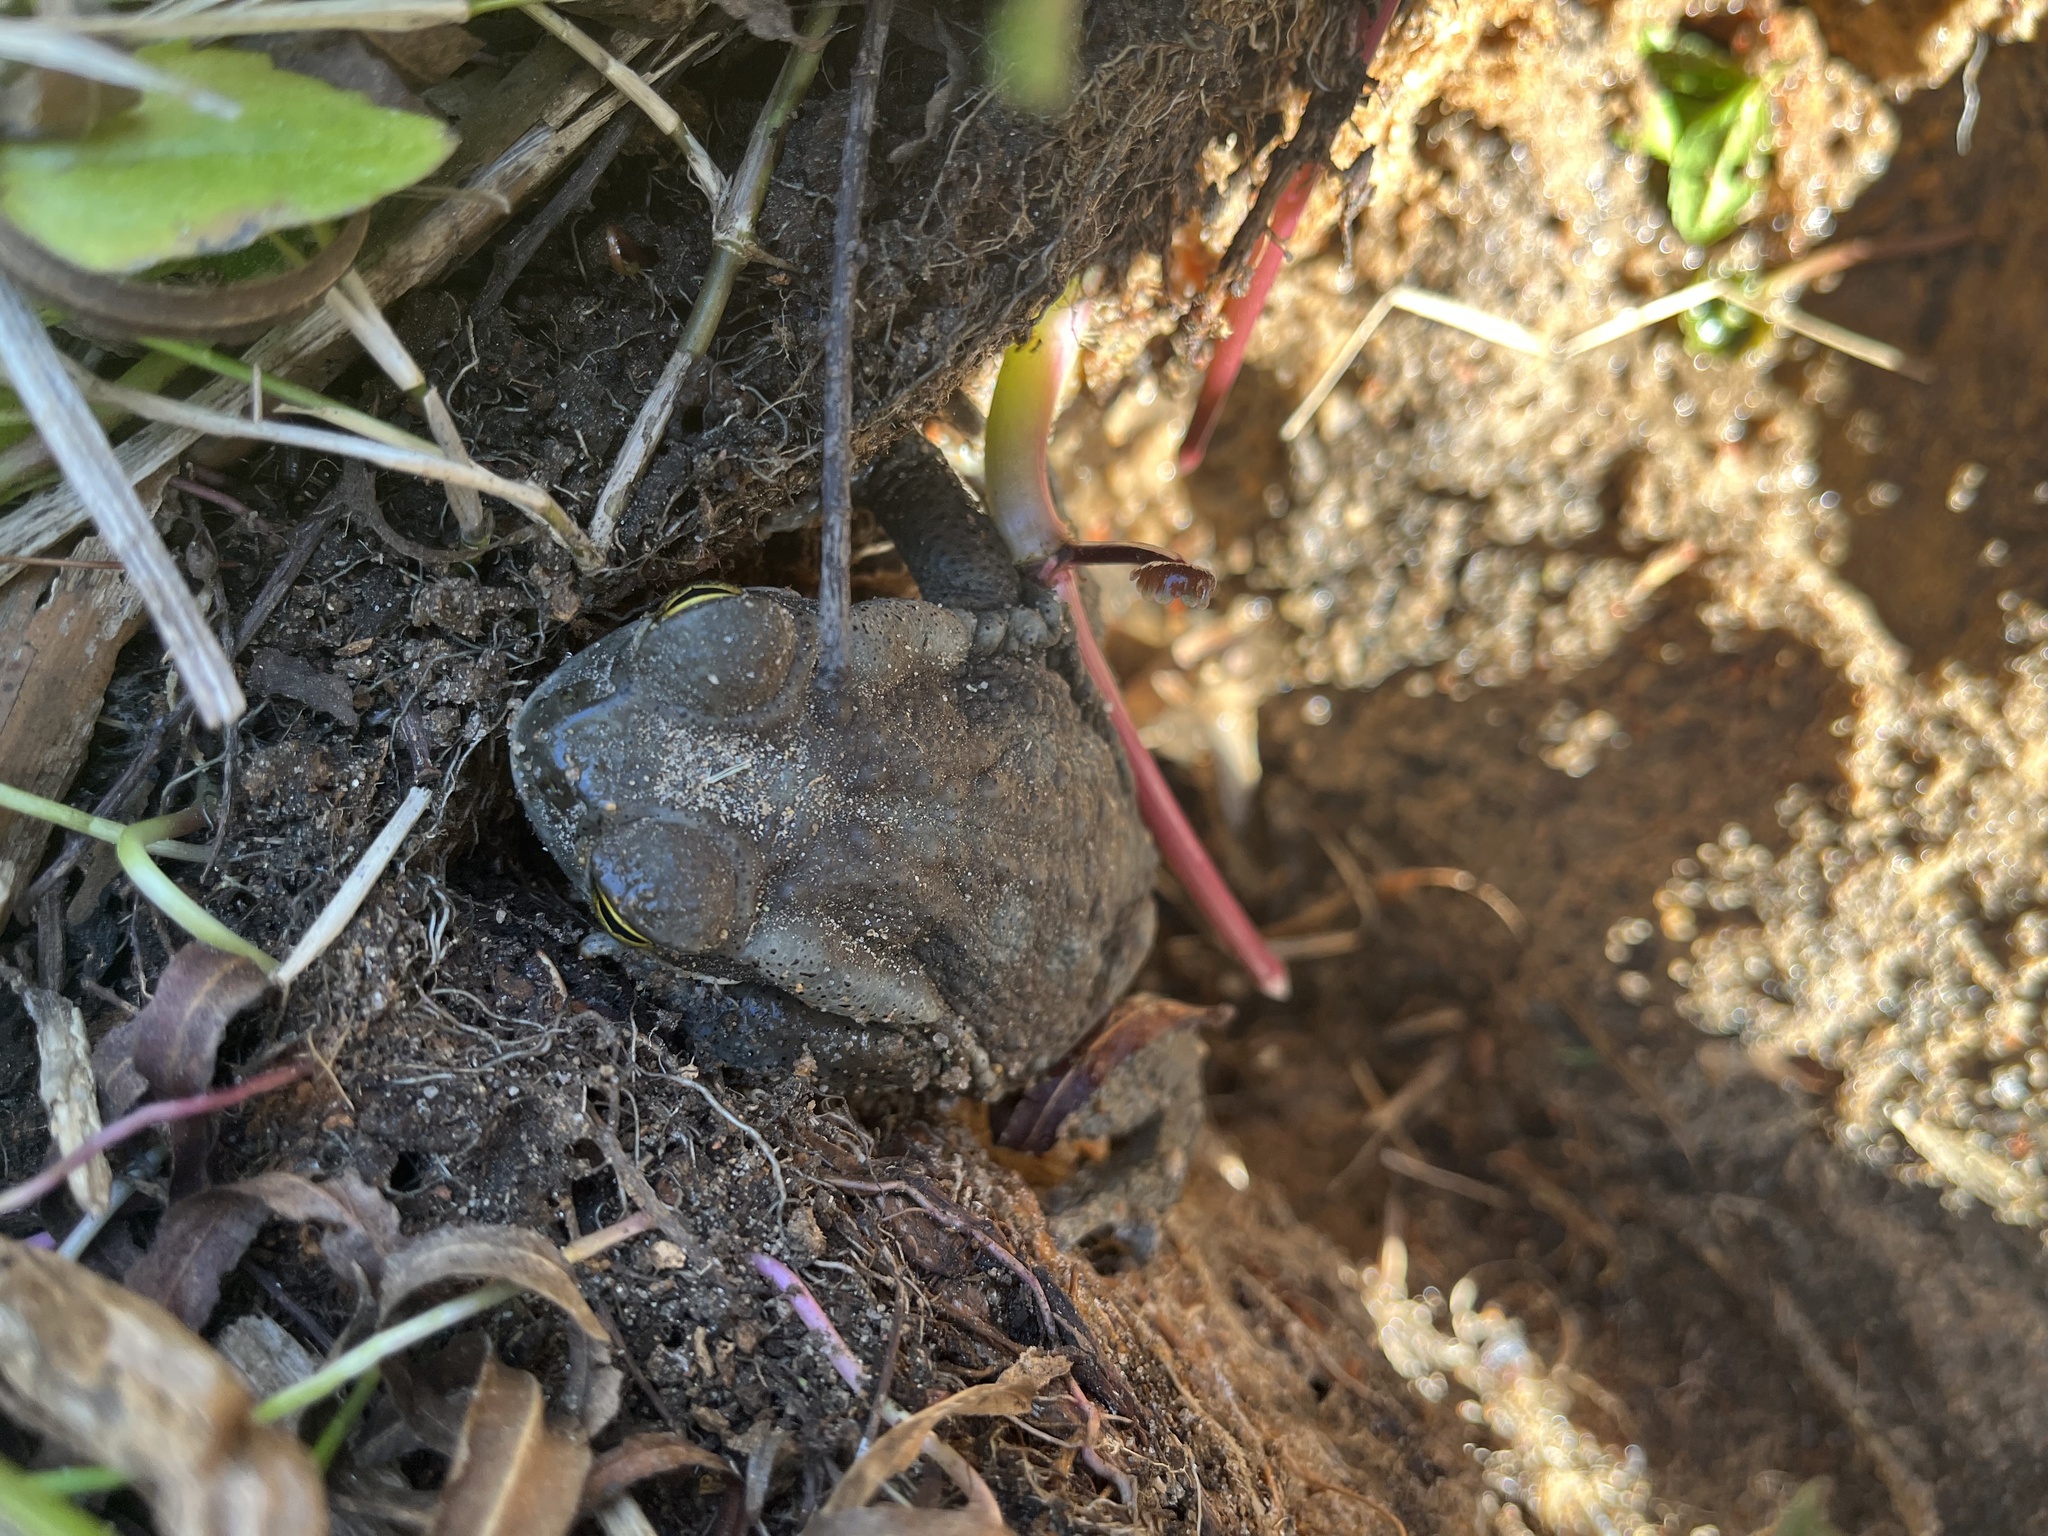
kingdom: Animalia
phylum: Chordata
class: Amphibia
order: Anura
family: Bufonidae
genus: Rhinella
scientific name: Rhinella arenarum
